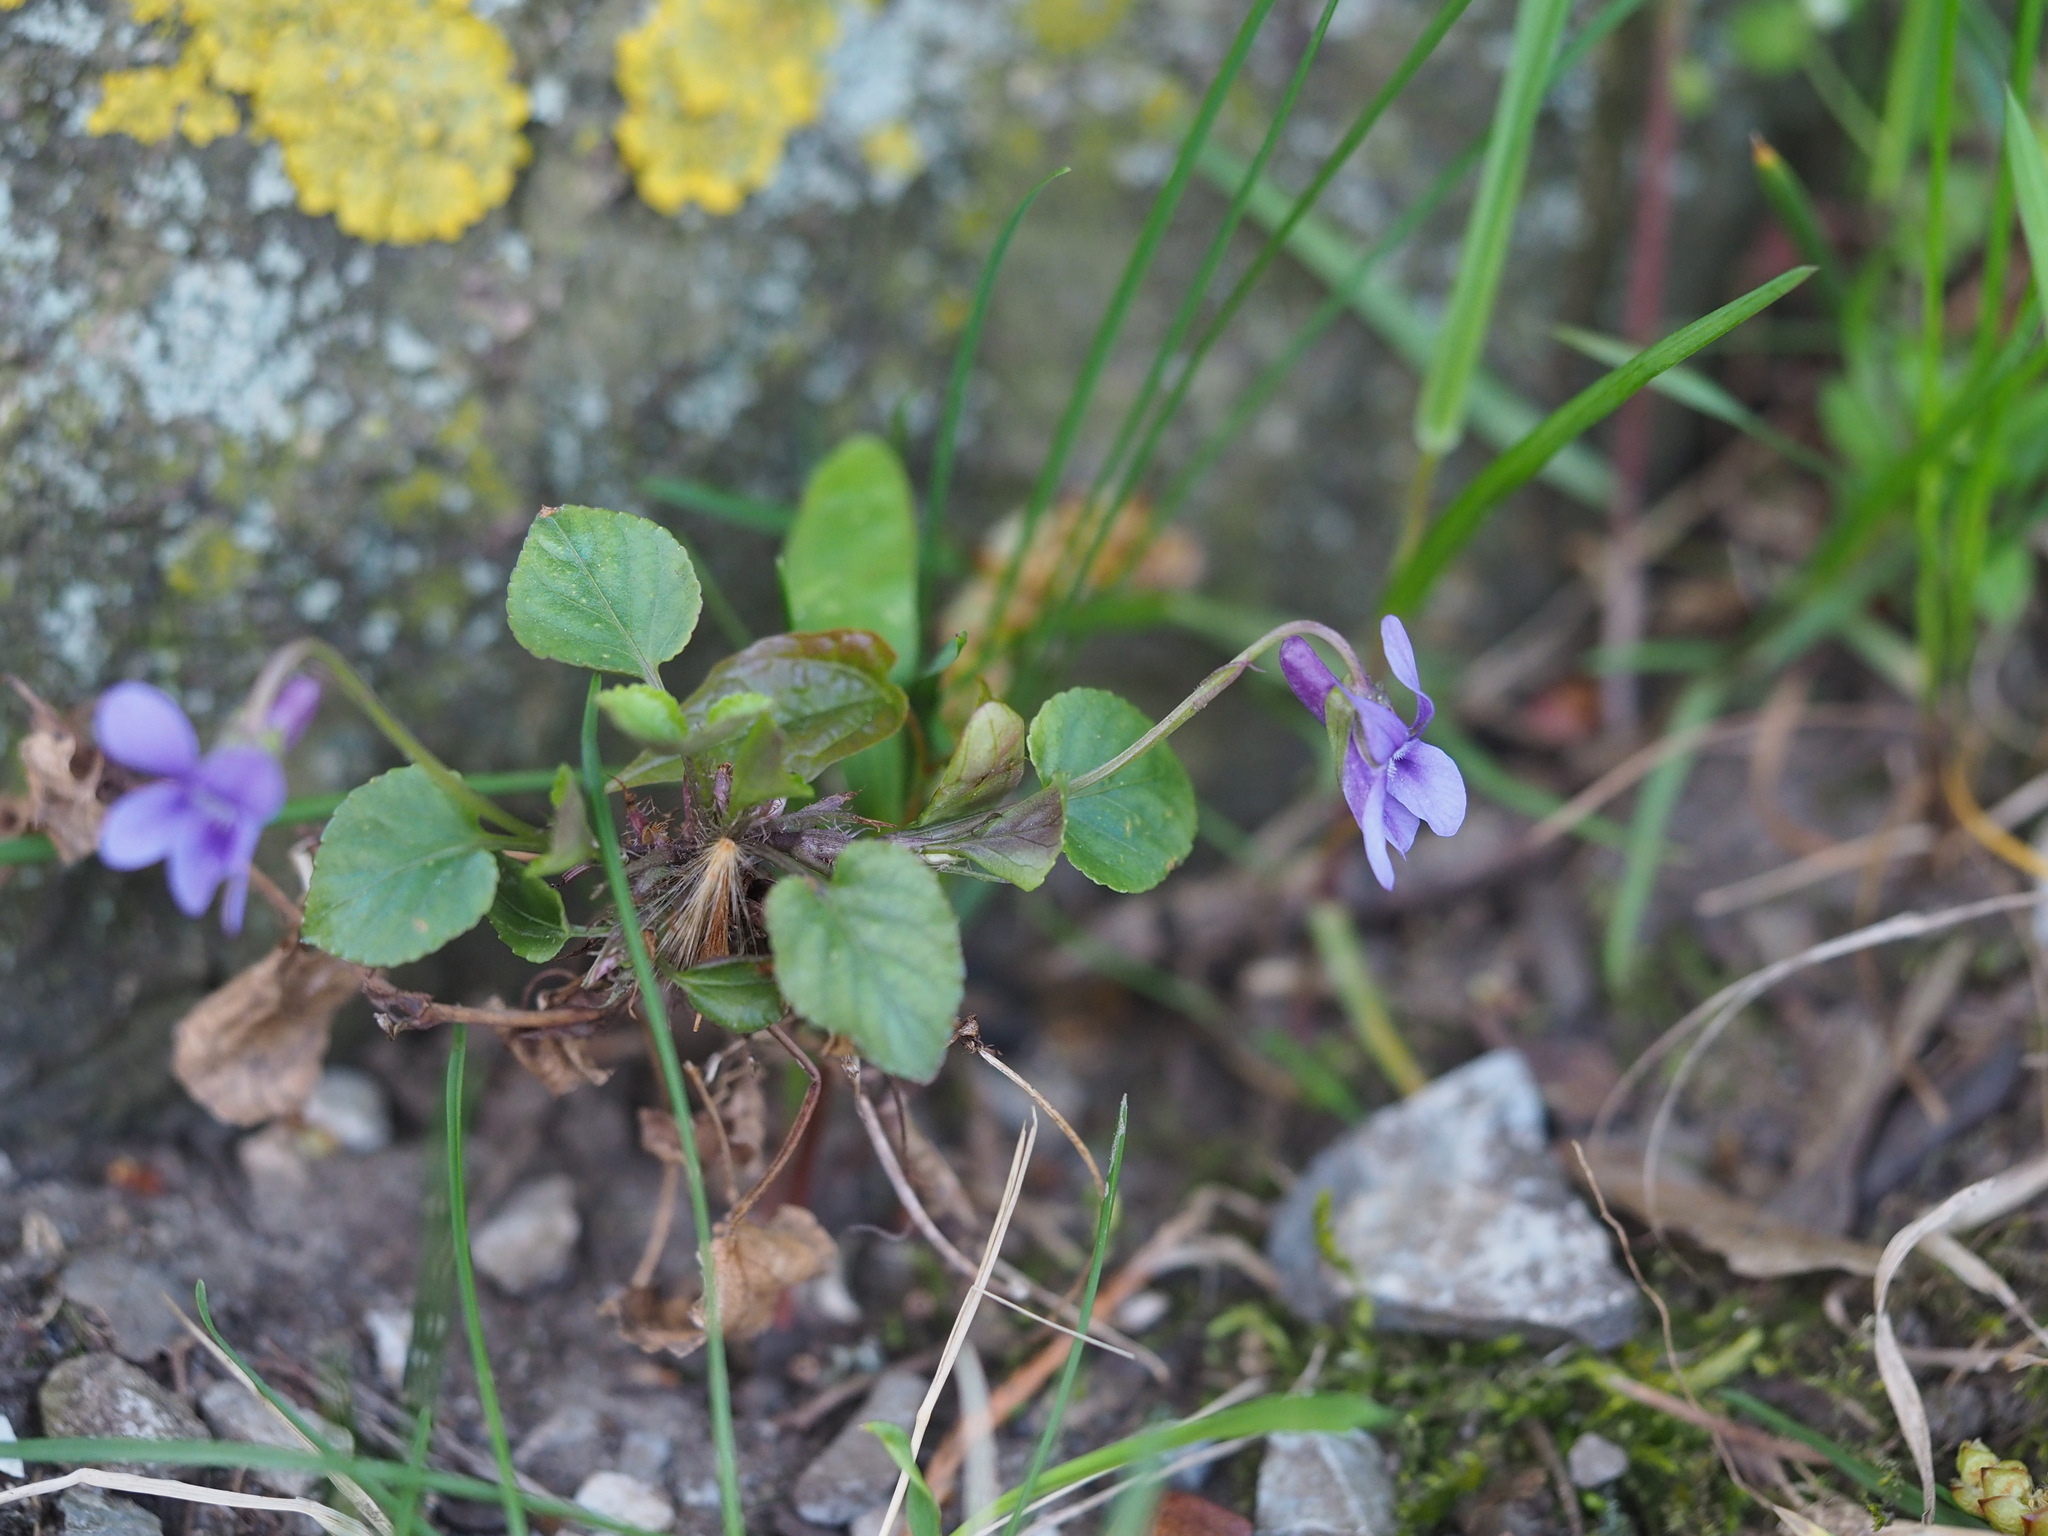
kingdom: Plantae
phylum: Tracheophyta
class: Magnoliopsida
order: Malpighiales
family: Violaceae
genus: Viola
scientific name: Viola reichenbachiana
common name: Early dog-violet
